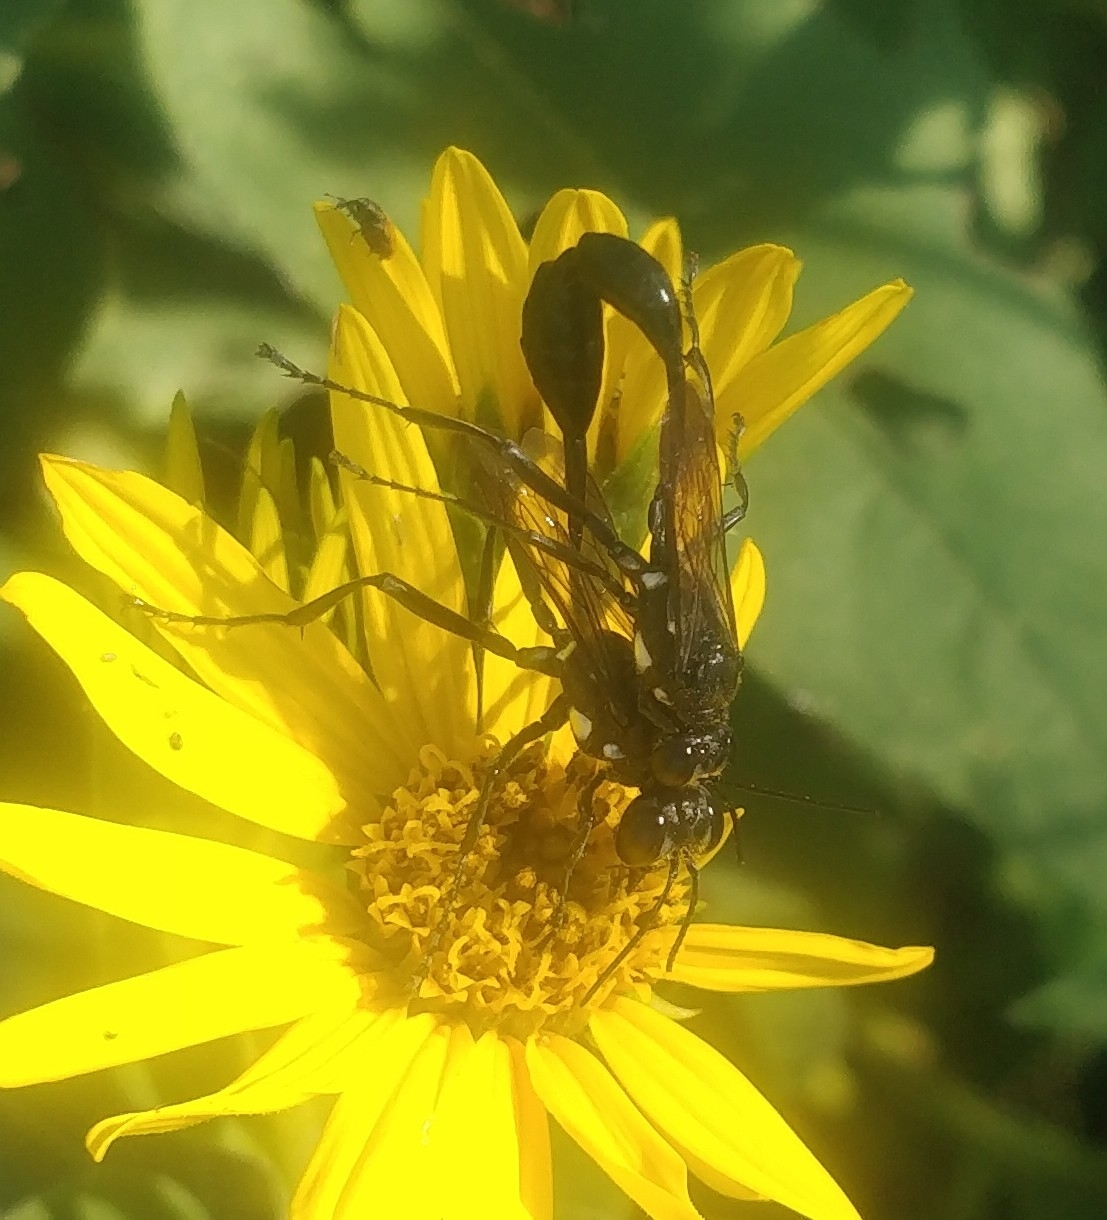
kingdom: Animalia
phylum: Arthropoda
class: Insecta
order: Hymenoptera
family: Sphecidae
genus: Eremnophila
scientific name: Eremnophila aureonotata
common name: Gold-marked thread-waisted wasp
